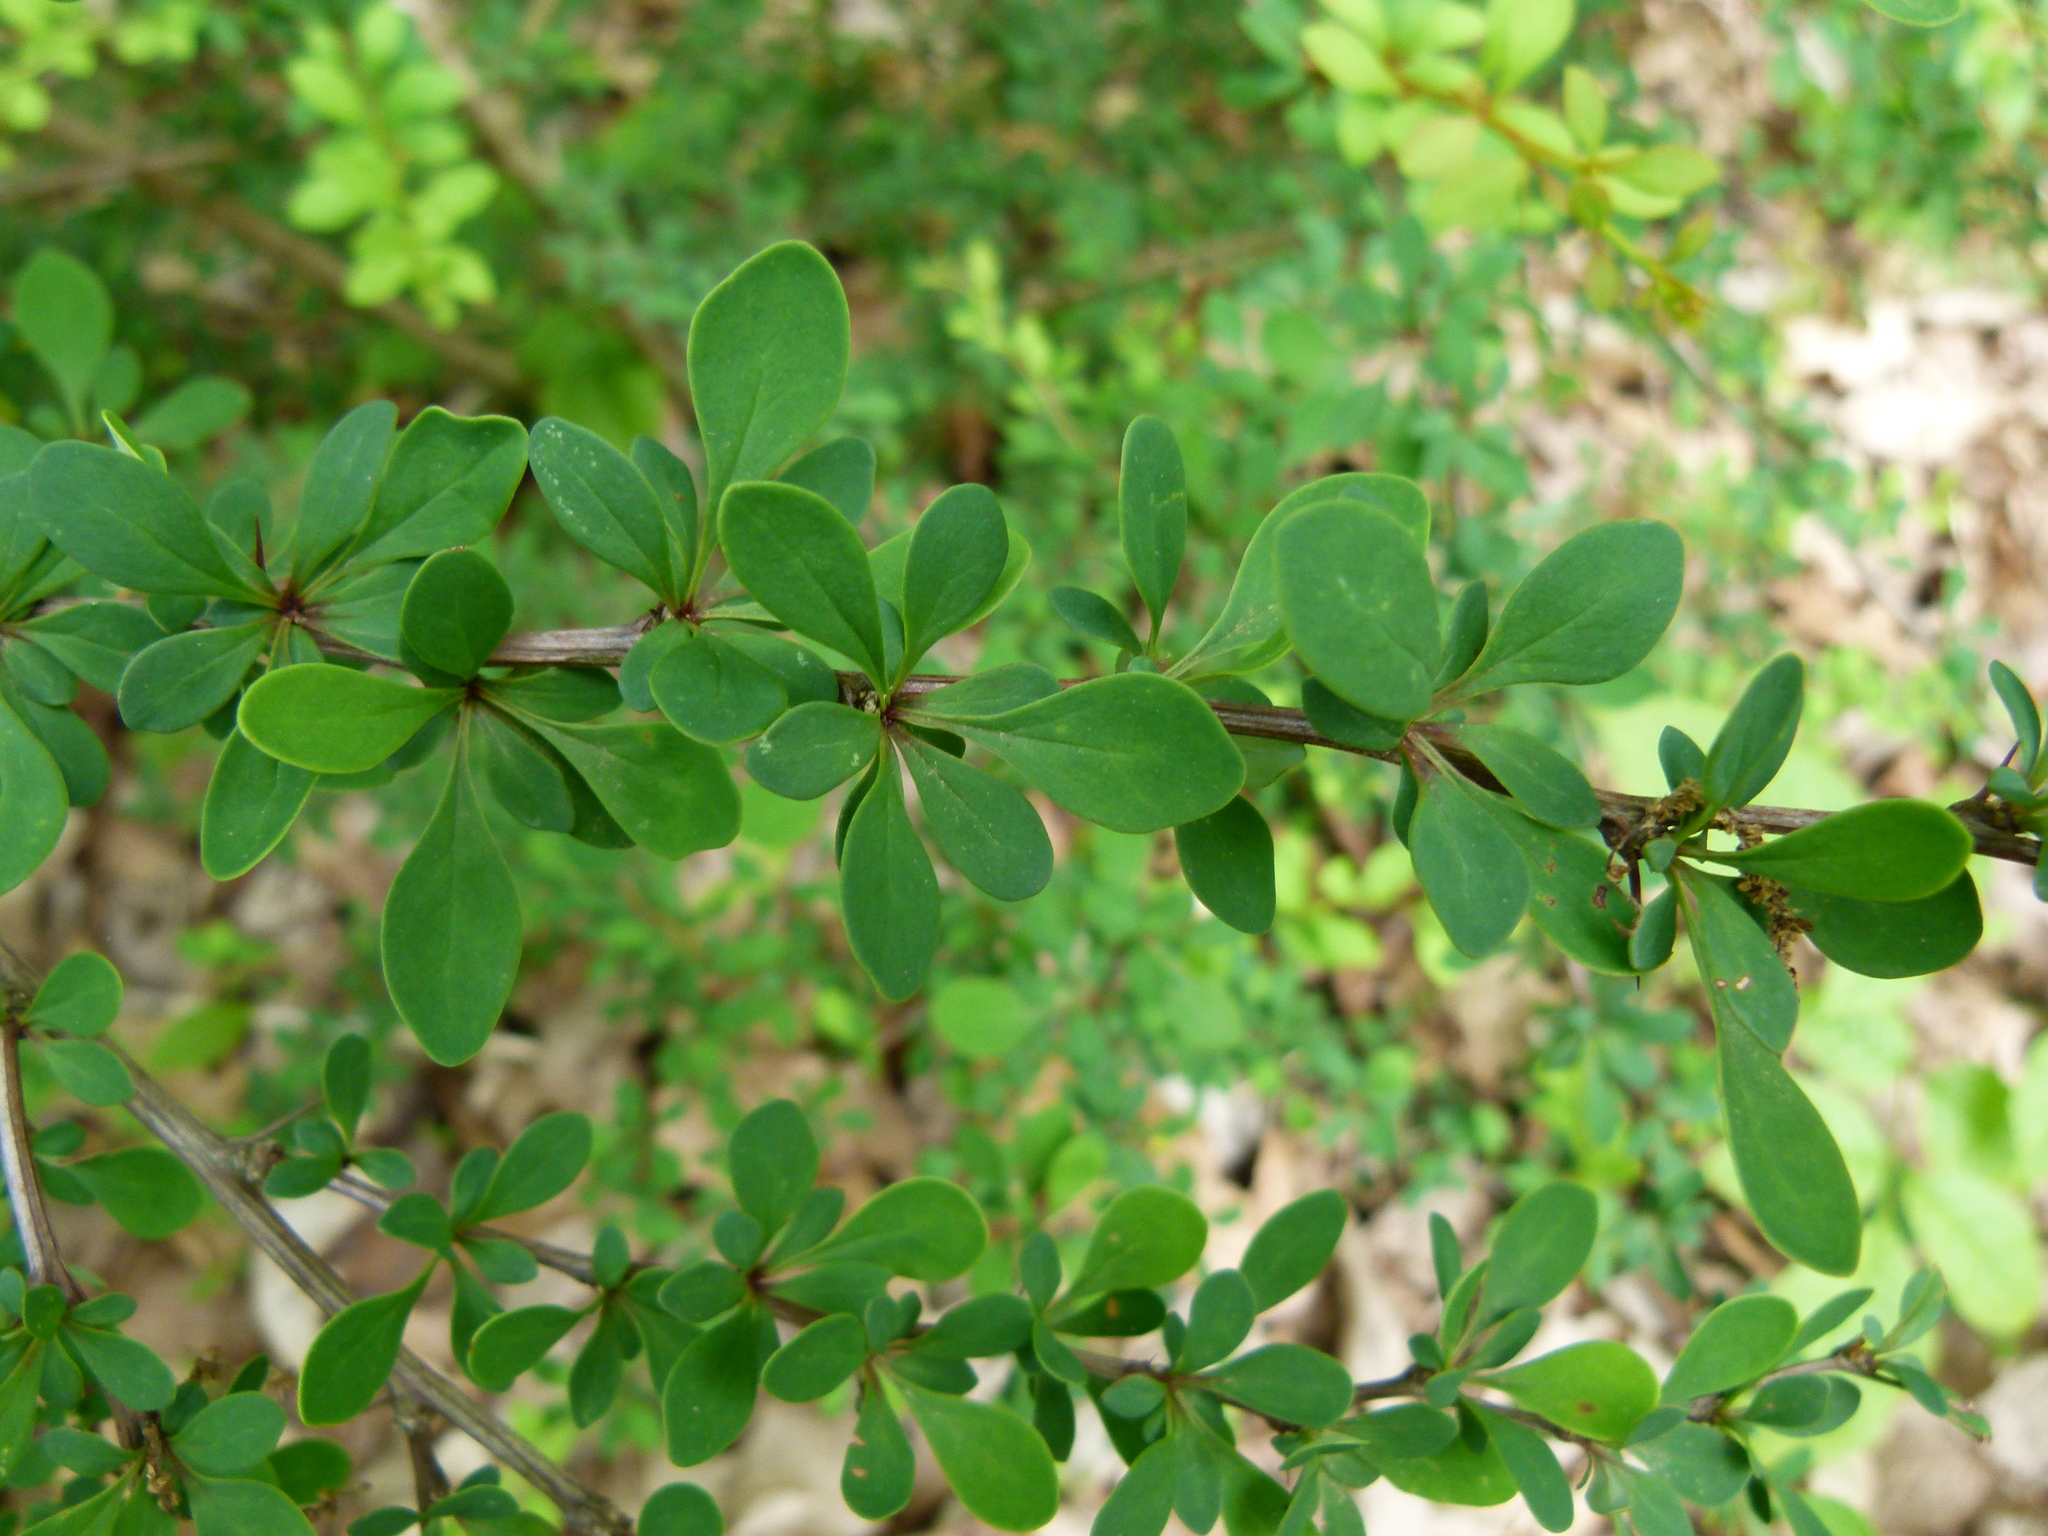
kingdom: Plantae
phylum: Tracheophyta
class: Magnoliopsida
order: Ranunculales
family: Berberidaceae
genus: Berberis
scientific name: Berberis thunbergii
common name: Japanese barberry
